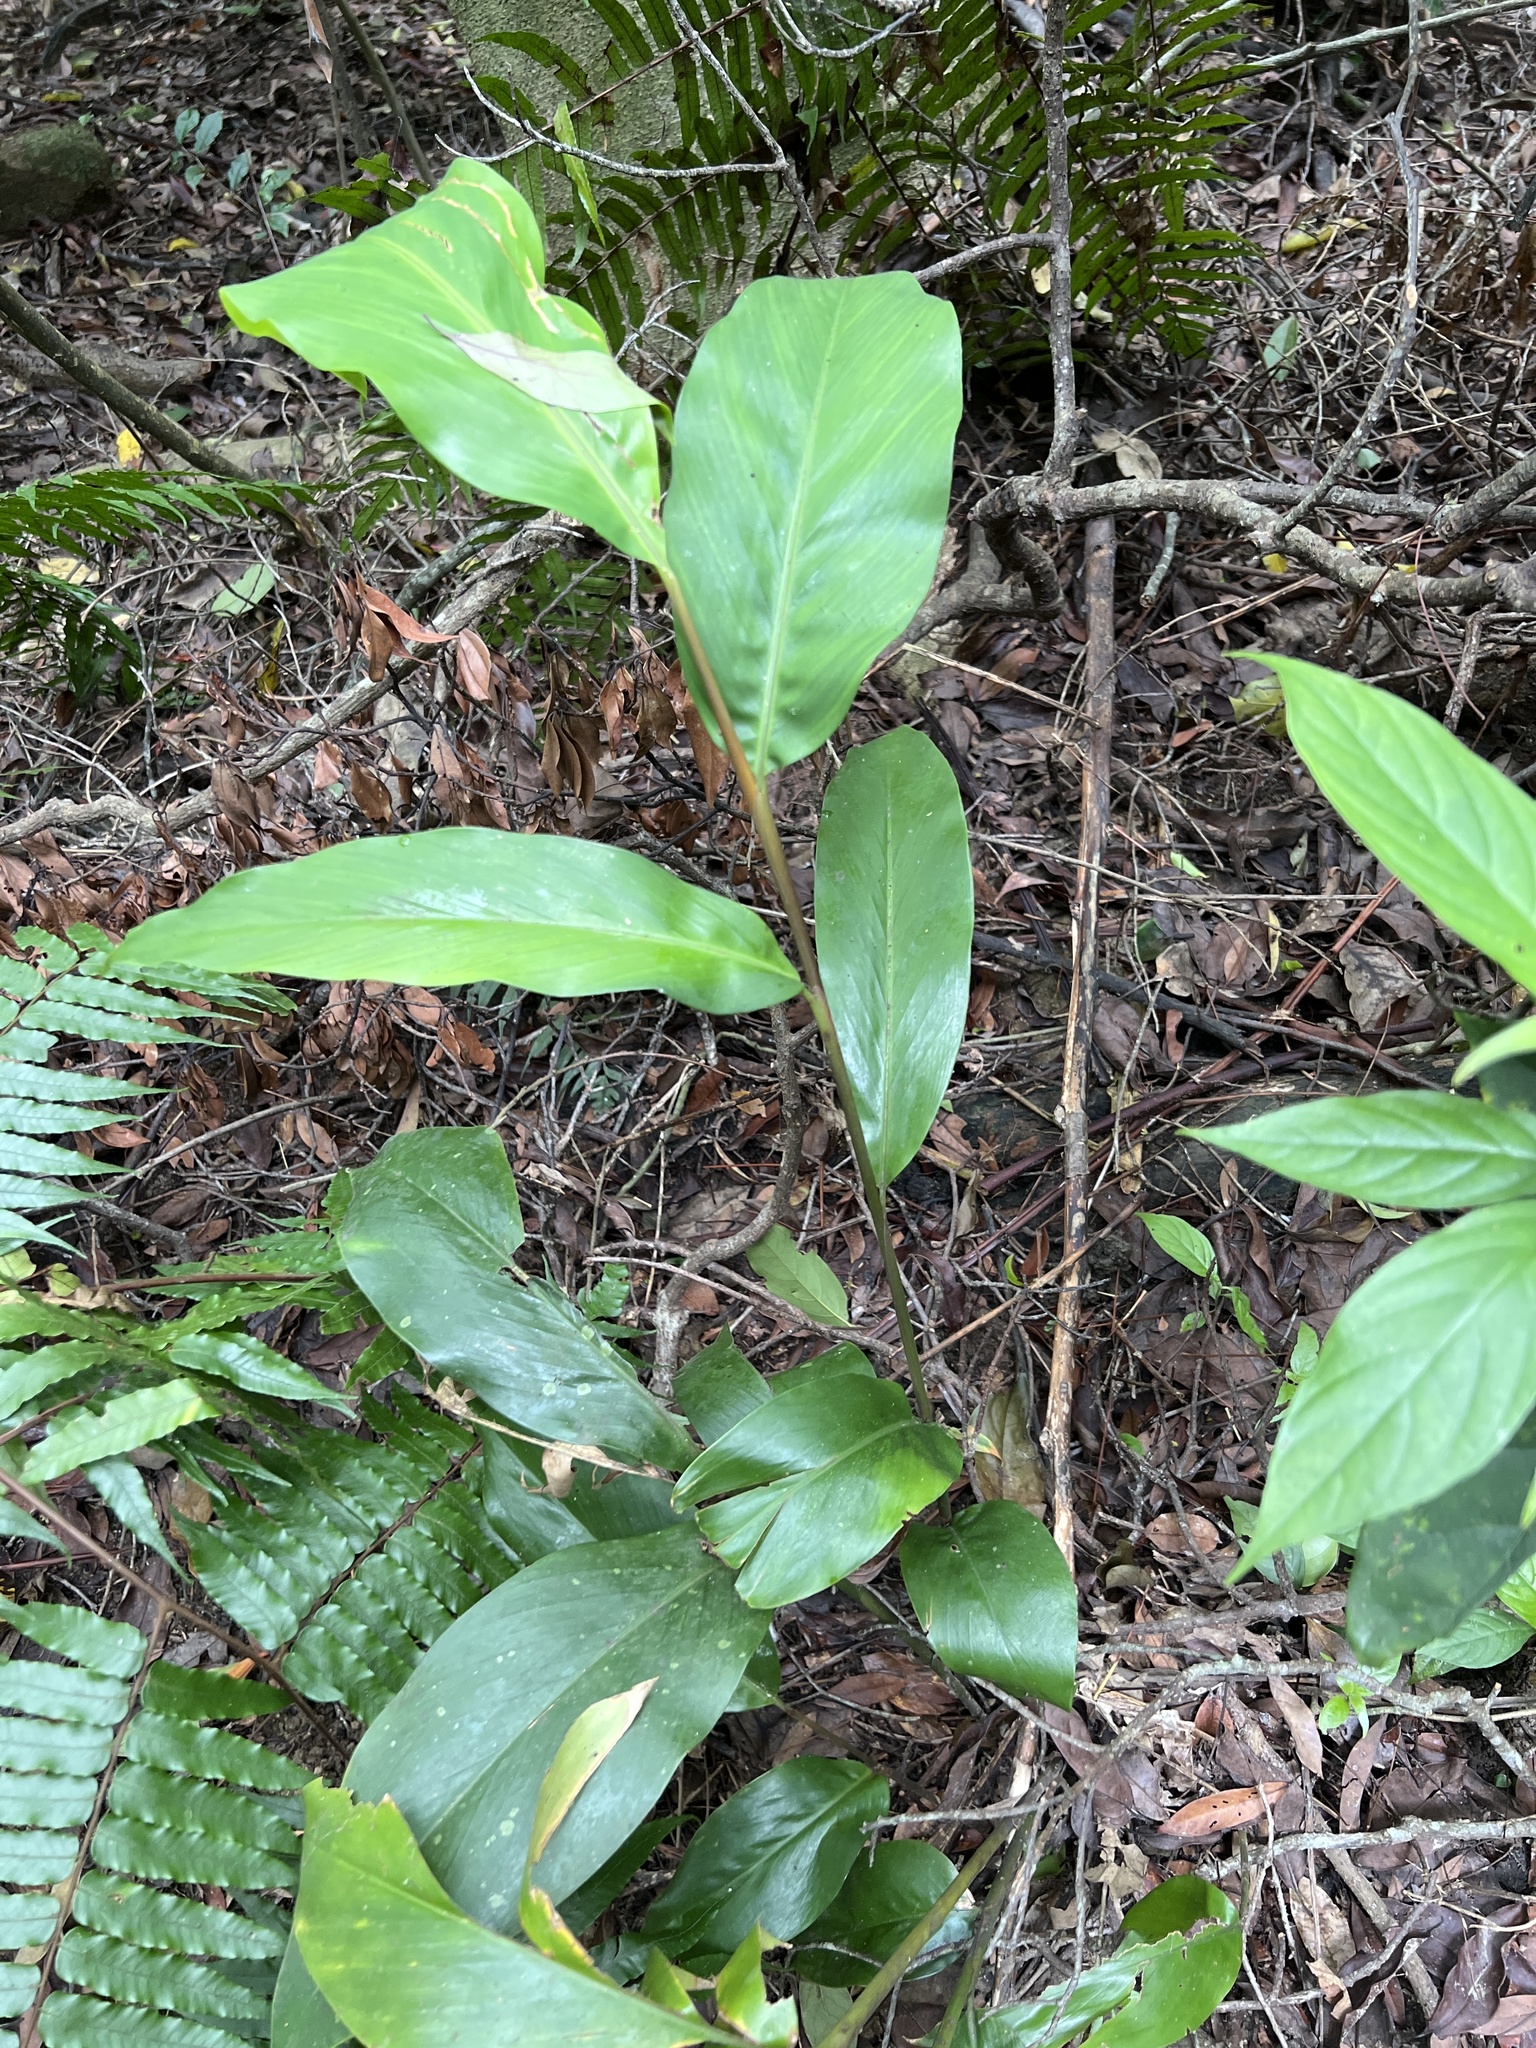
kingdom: Plantae
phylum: Tracheophyta
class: Liliopsida
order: Zingiberales
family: Zingiberaceae
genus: Alpinia
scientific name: Alpinia intermedia
